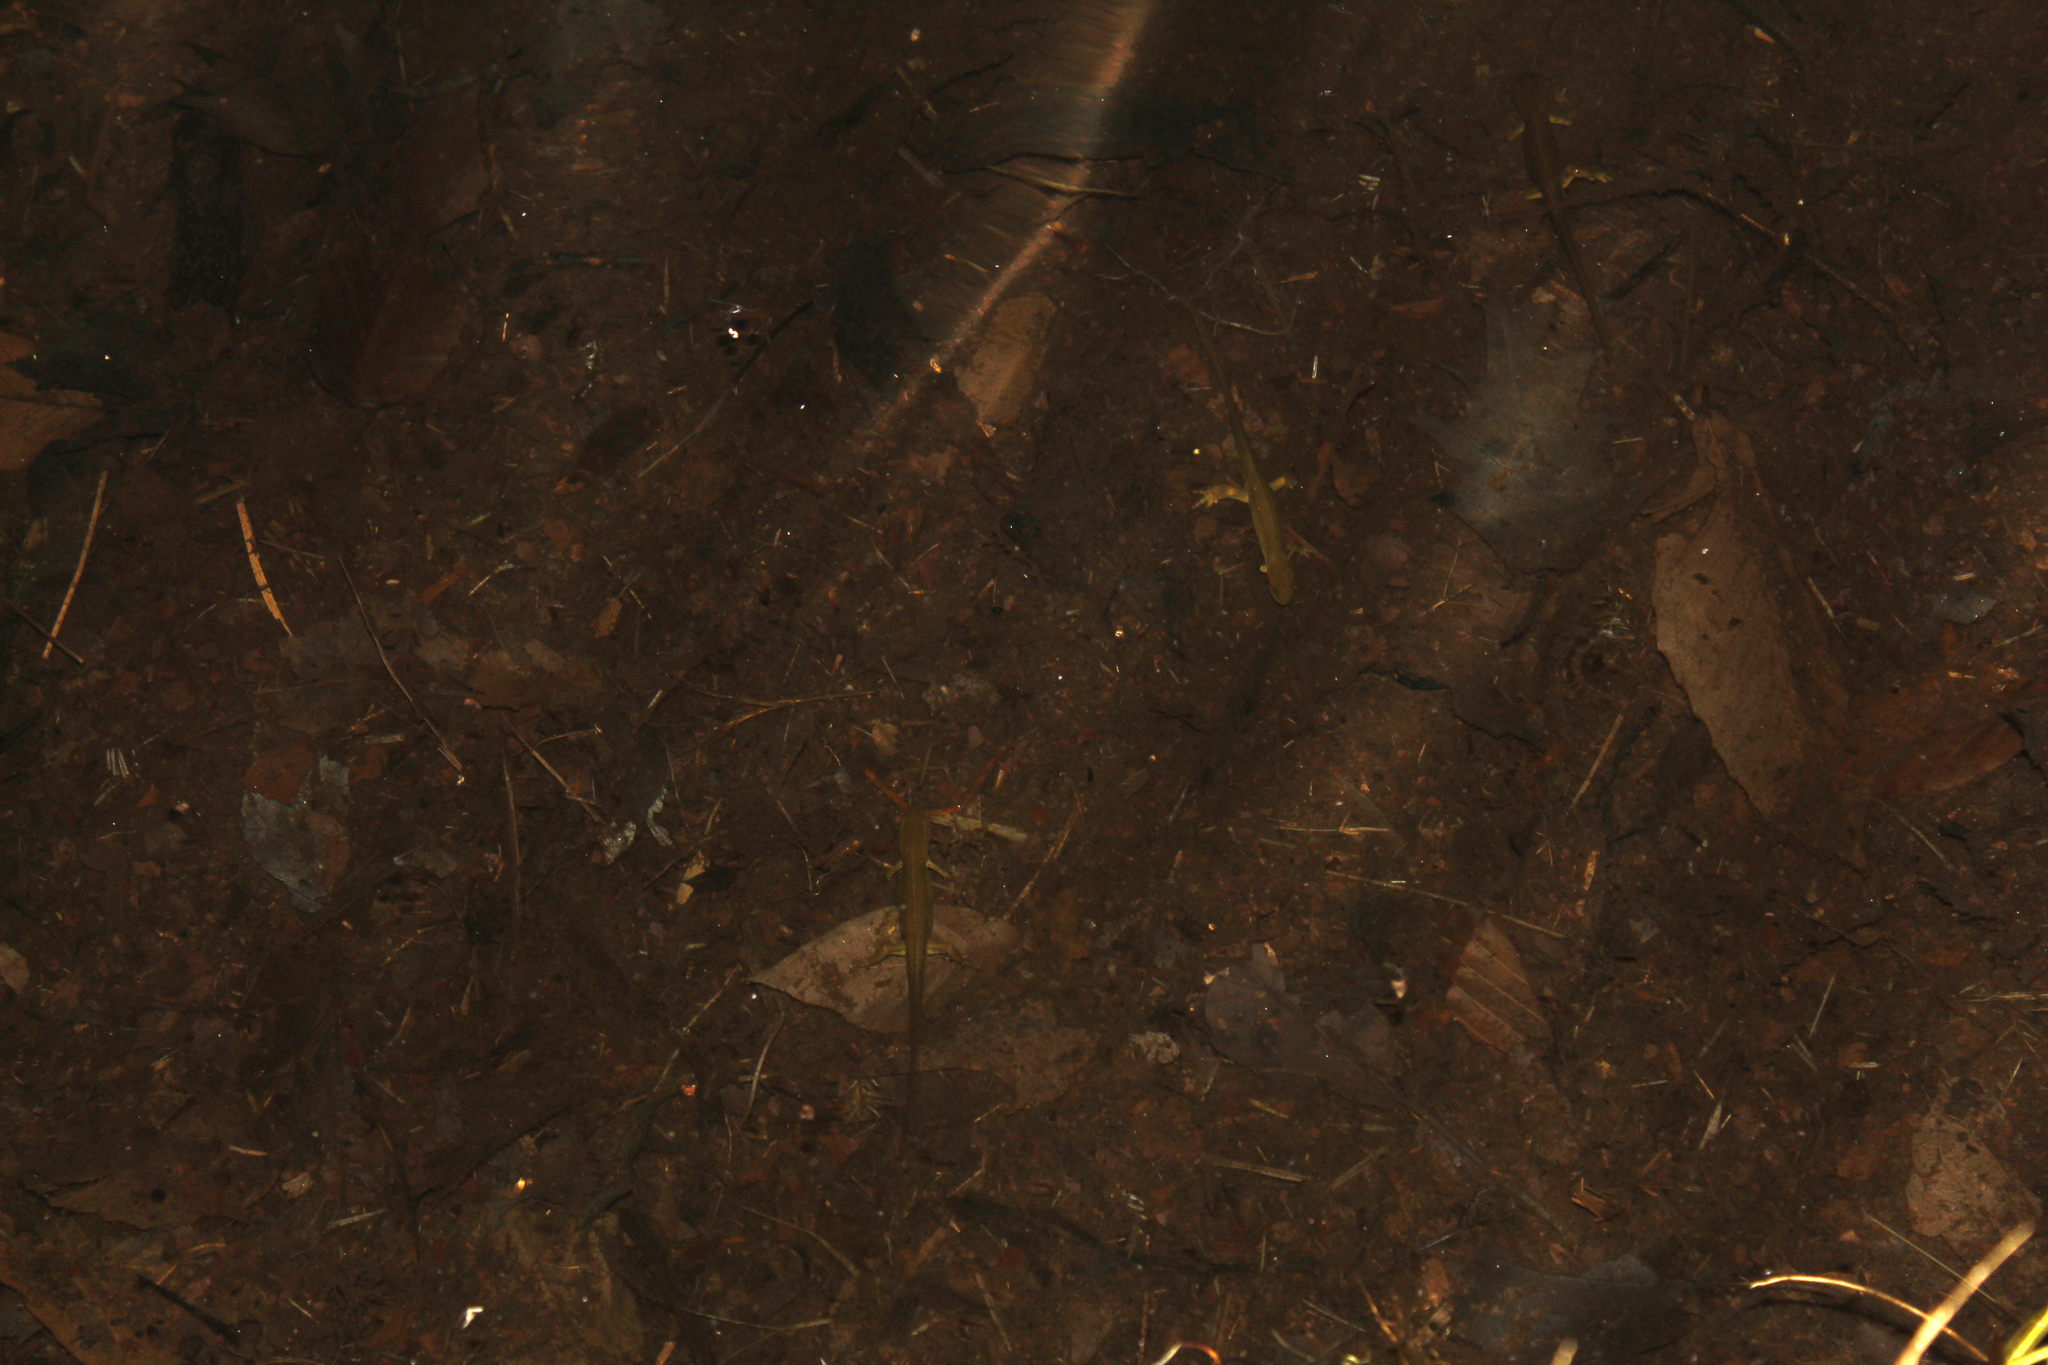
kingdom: Animalia
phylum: Chordata
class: Amphibia
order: Caudata
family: Salamandridae
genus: Notophthalmus
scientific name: Notophthalmus viridescens
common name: Eastern newt
